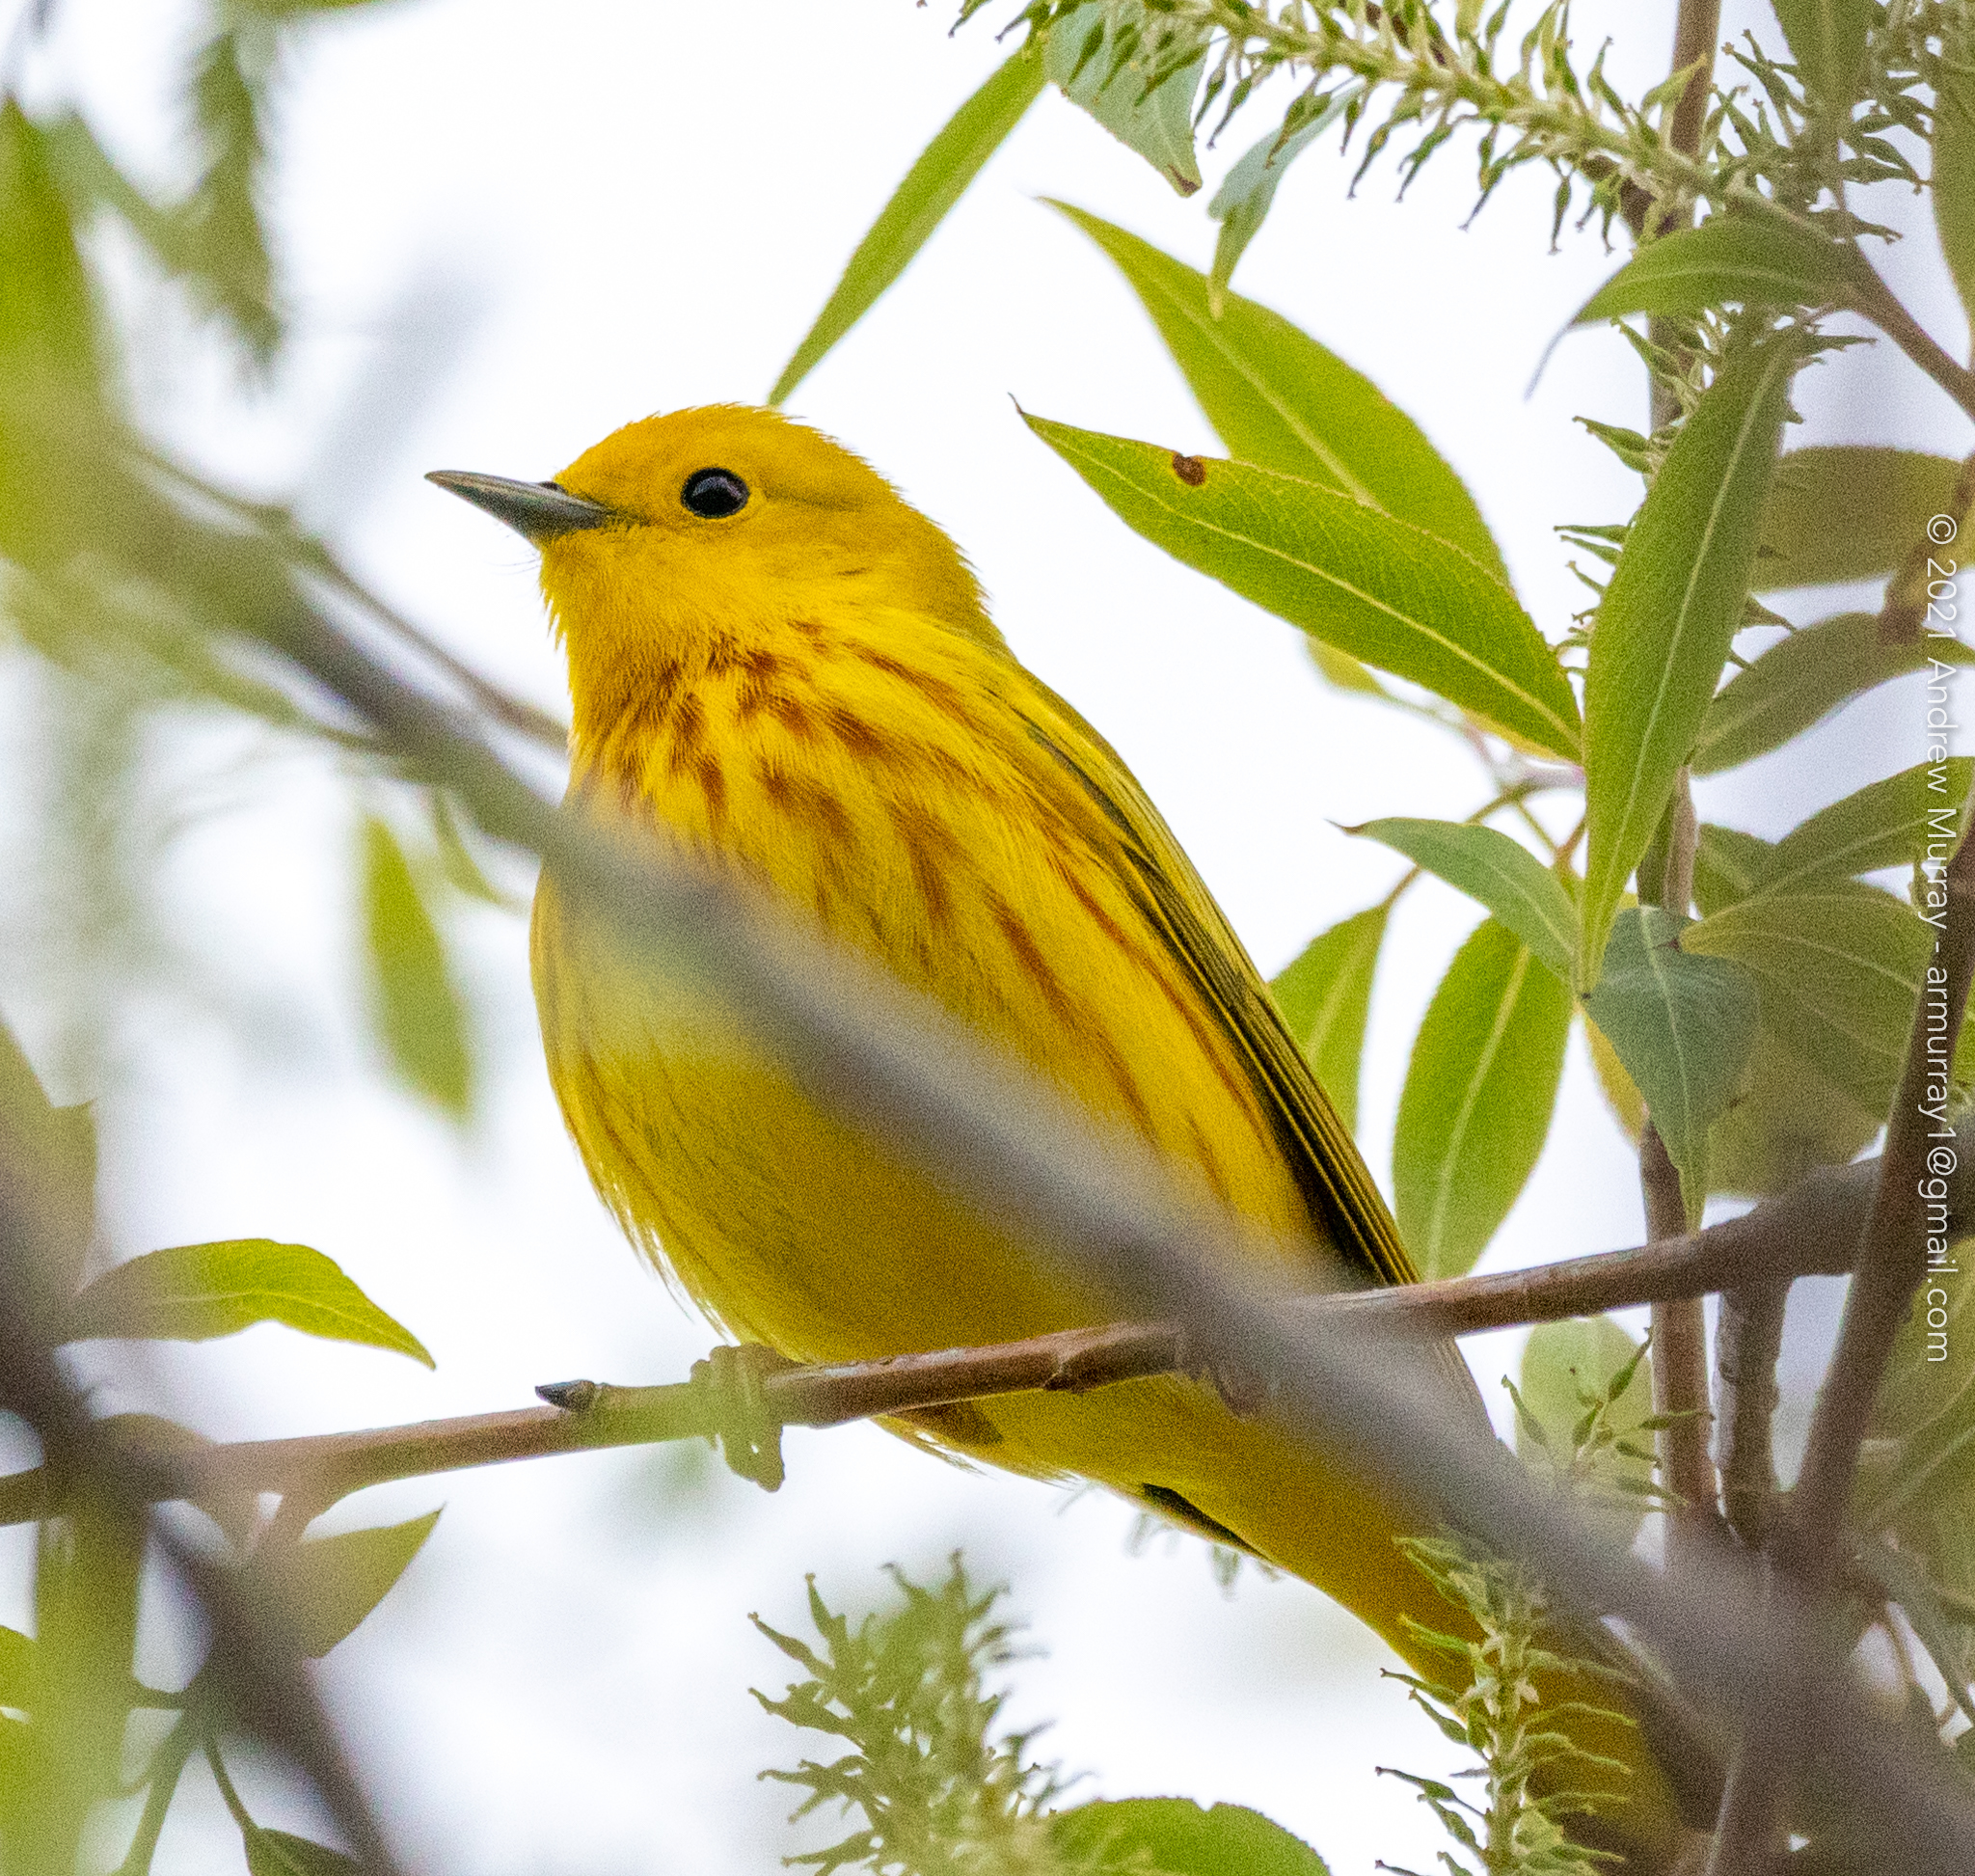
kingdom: Animalia
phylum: Chordata
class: Aves
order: Passeriformes
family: Parulidae
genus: Setophaga
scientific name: Setophaga petechia
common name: Yellow warbler
